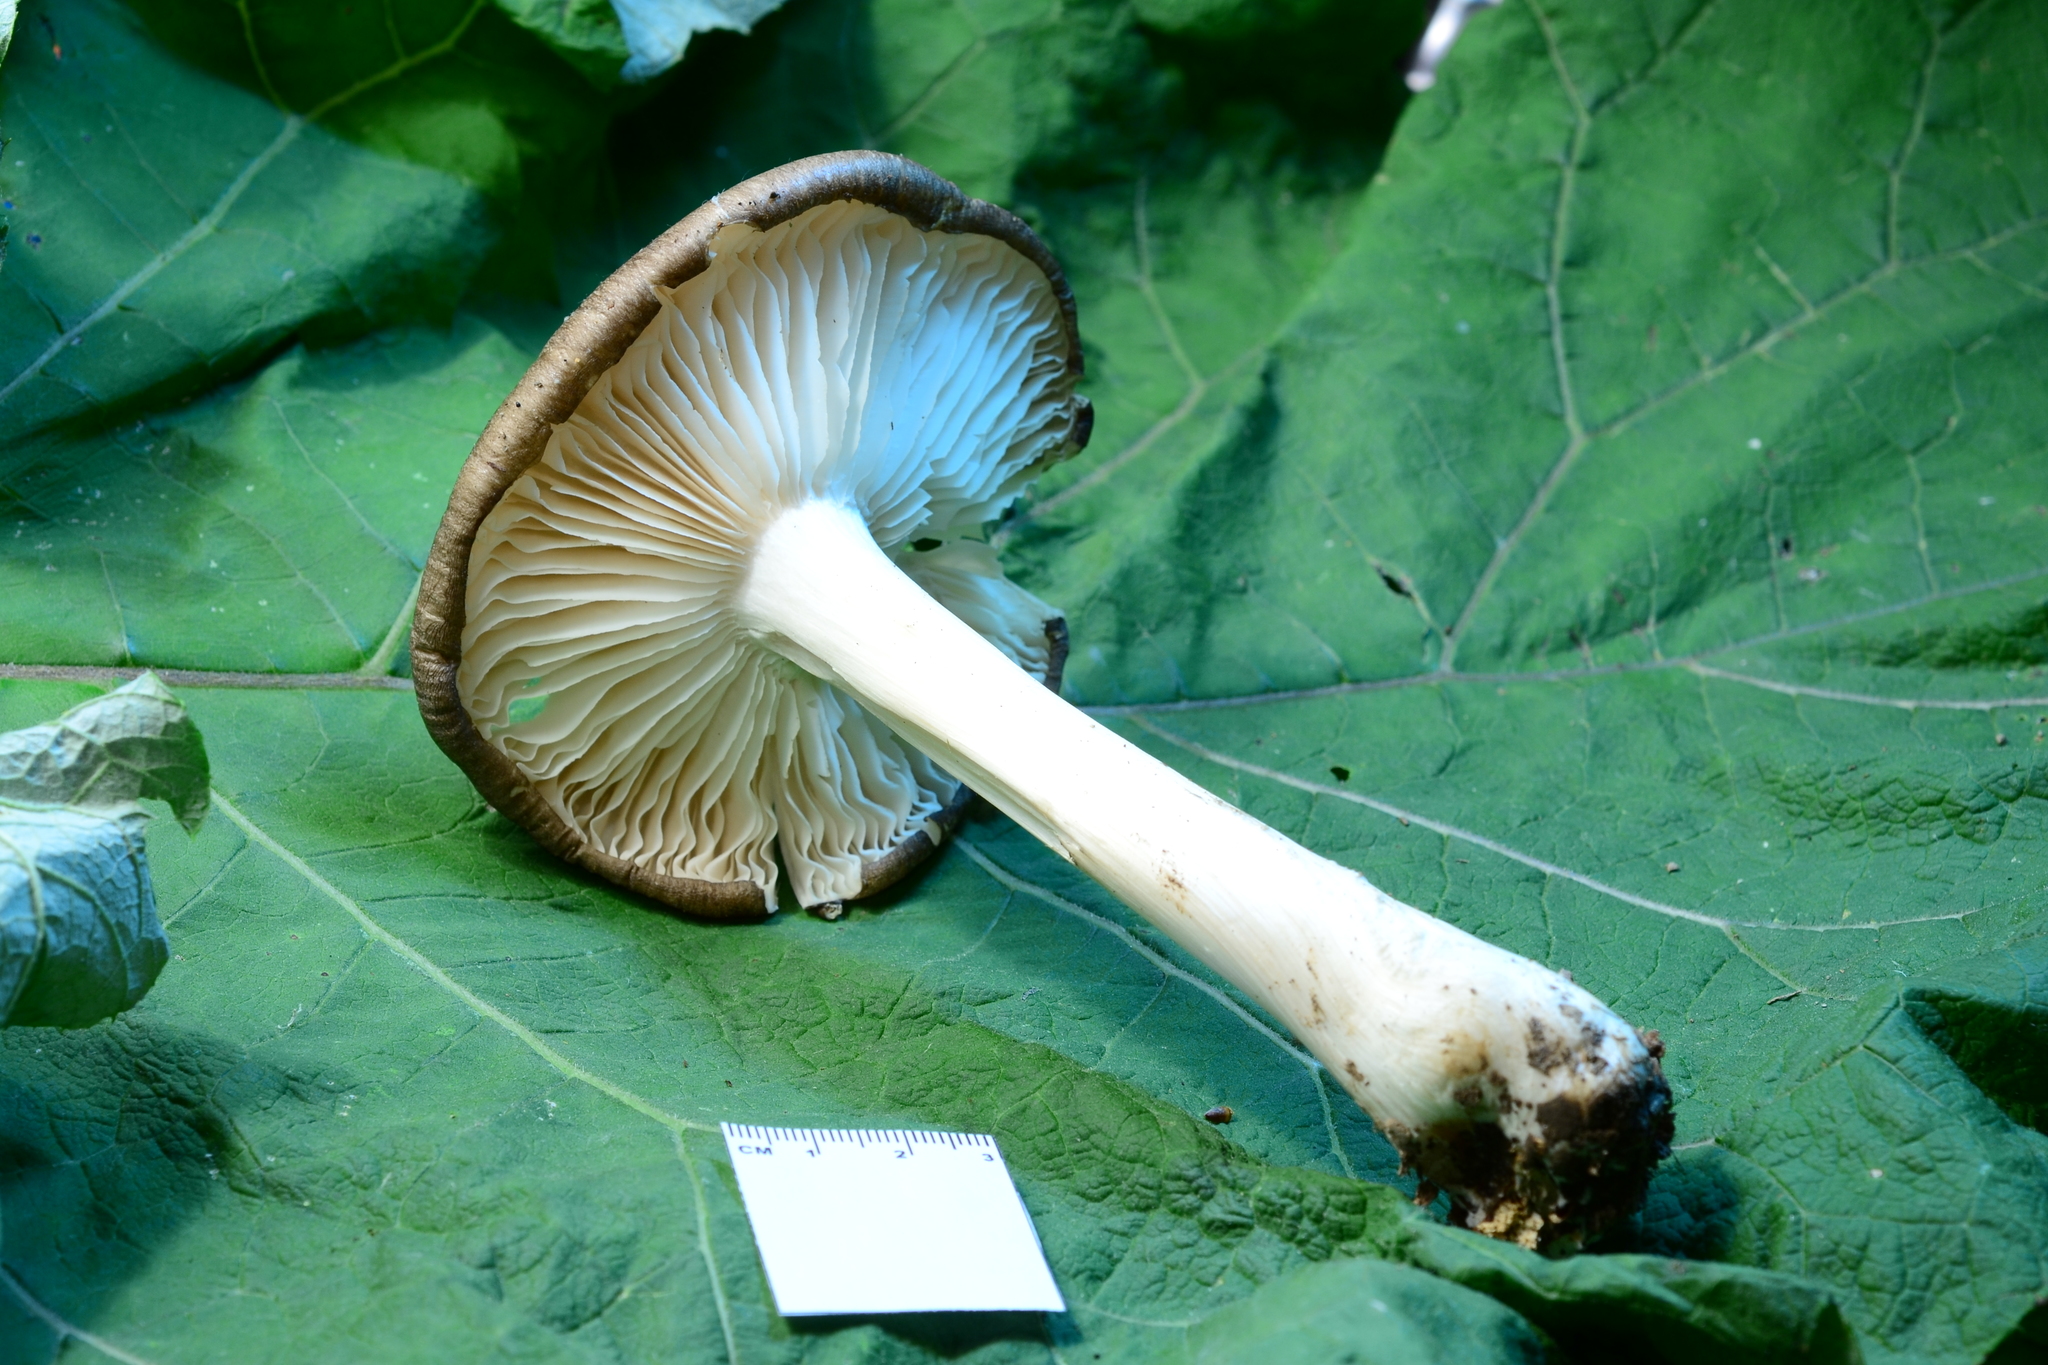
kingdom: Fungi
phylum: Basidiomycota
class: Agaricomycetes
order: Agaricales
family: Tricholomataceae
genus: Megacollybia
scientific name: Megacollybia rodmanii
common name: Eastern american platterful mushroom
